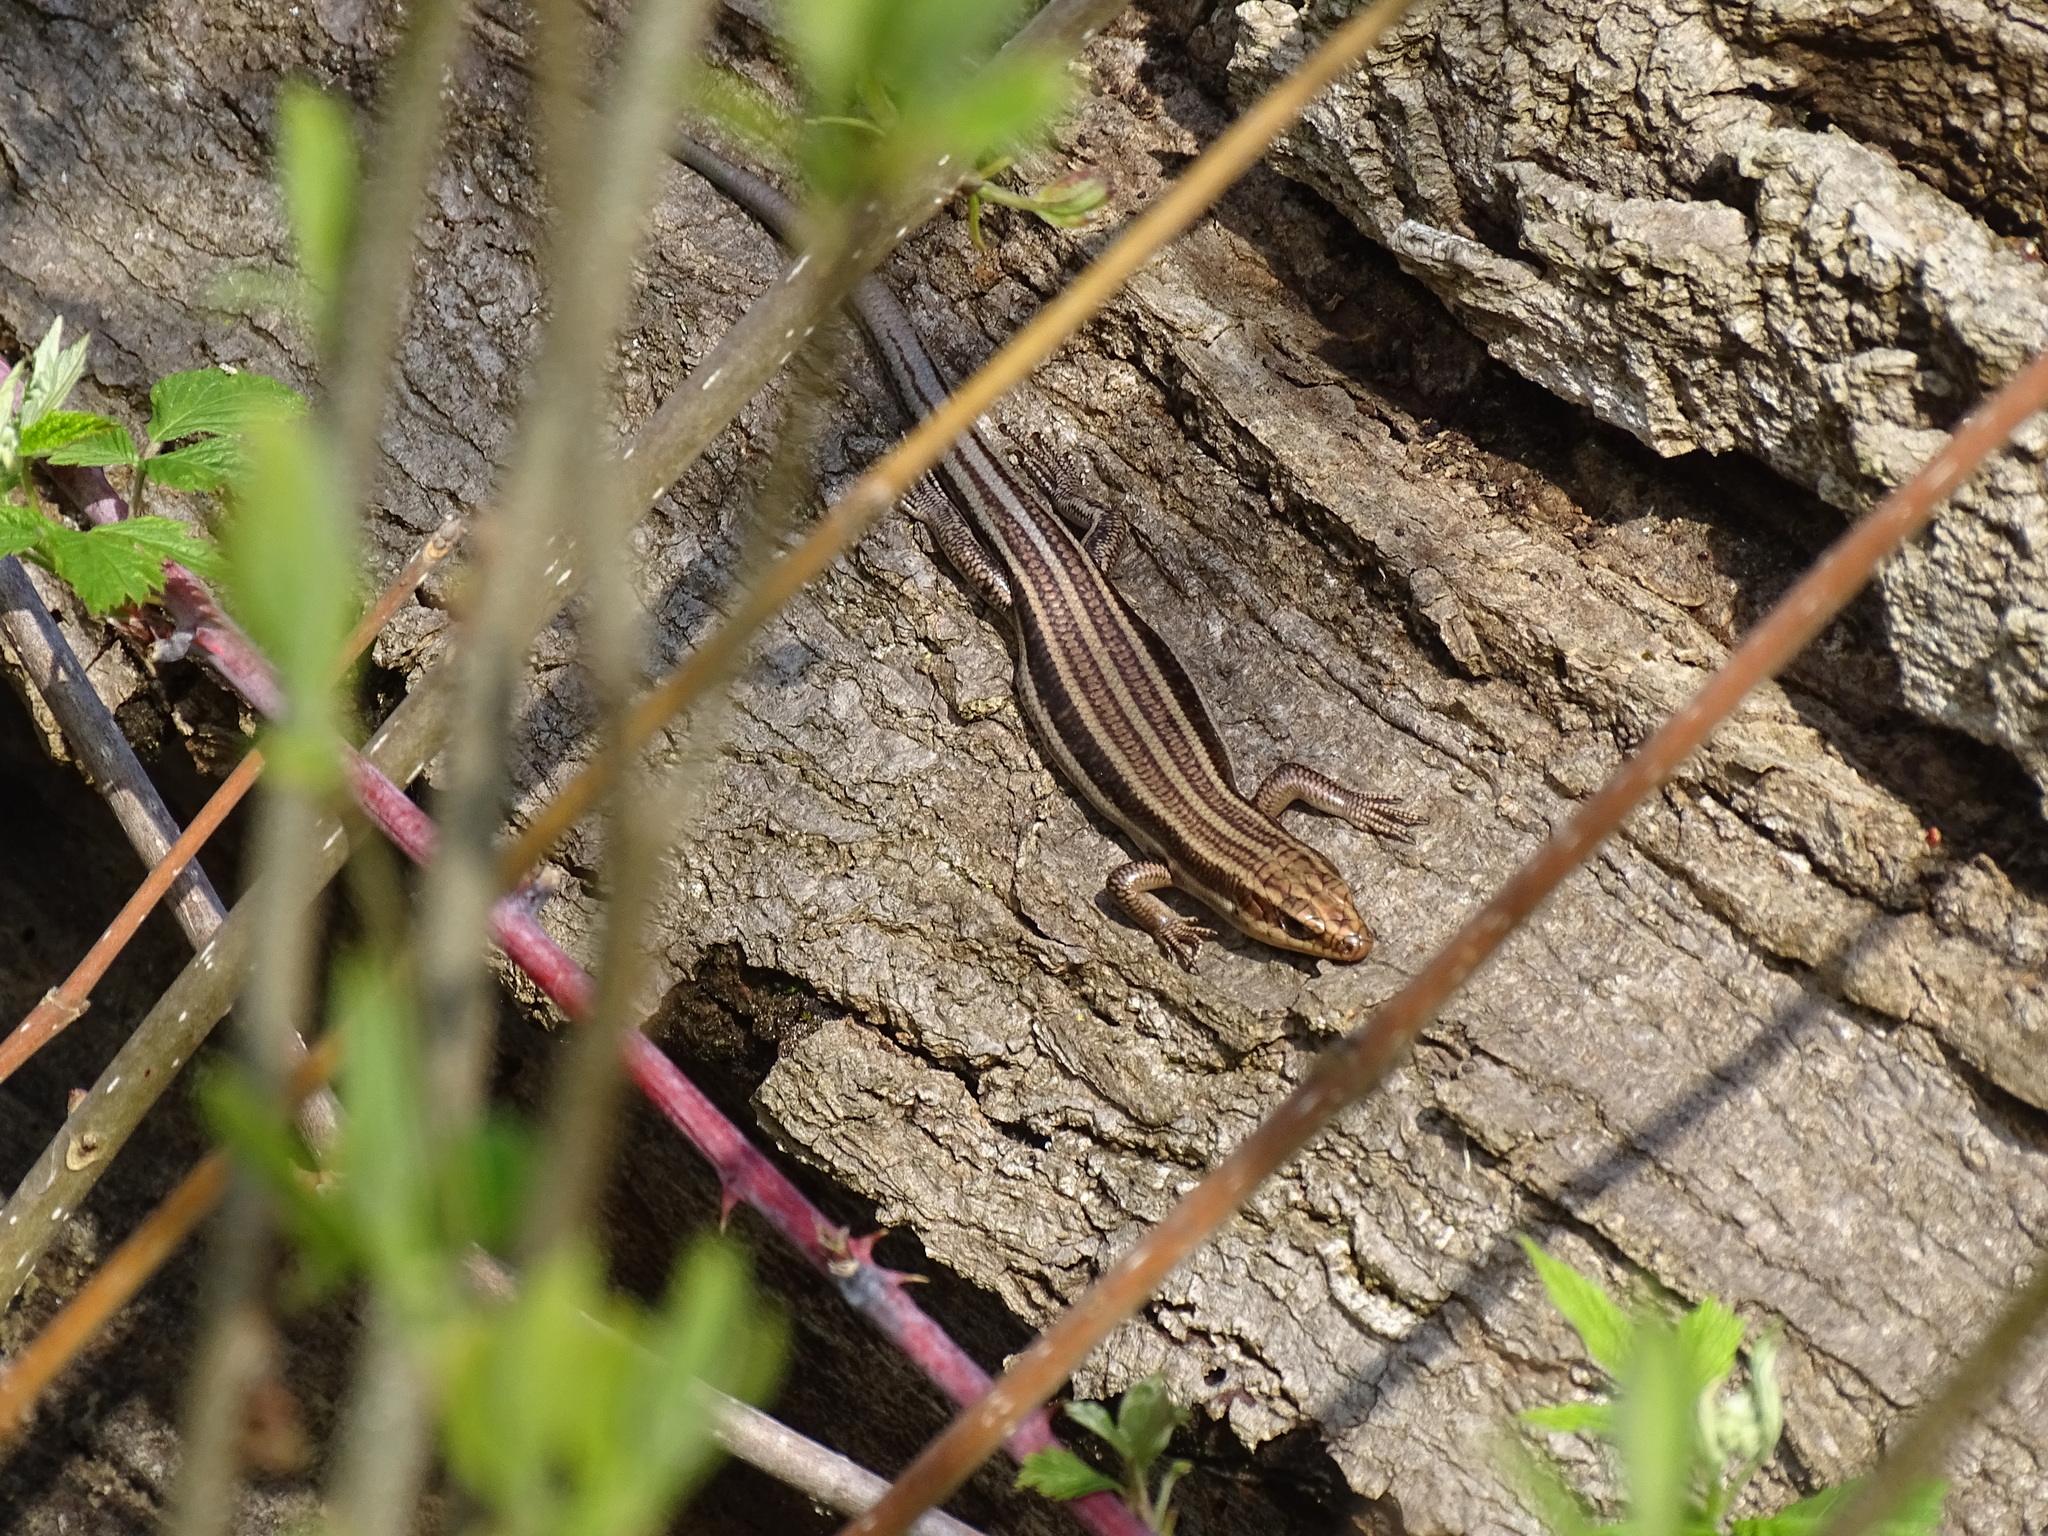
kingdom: Animalia
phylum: Chordata
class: Squamata
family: Scincidae
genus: Plestiodon
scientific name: Plestiodon fasciatus
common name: Five-lined skink
